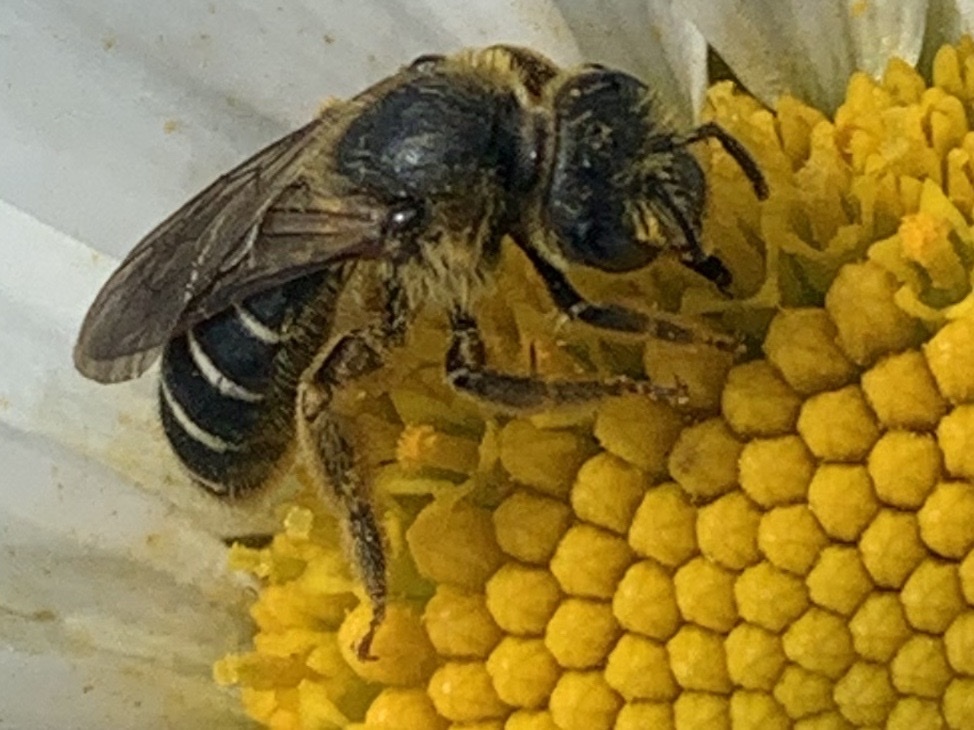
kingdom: Animalia
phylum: Arthropoda
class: Insecta
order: Hymenoptera
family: Halictidae
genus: Halictus
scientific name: Halictus rubicundus
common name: Orange-legged furrow bee
